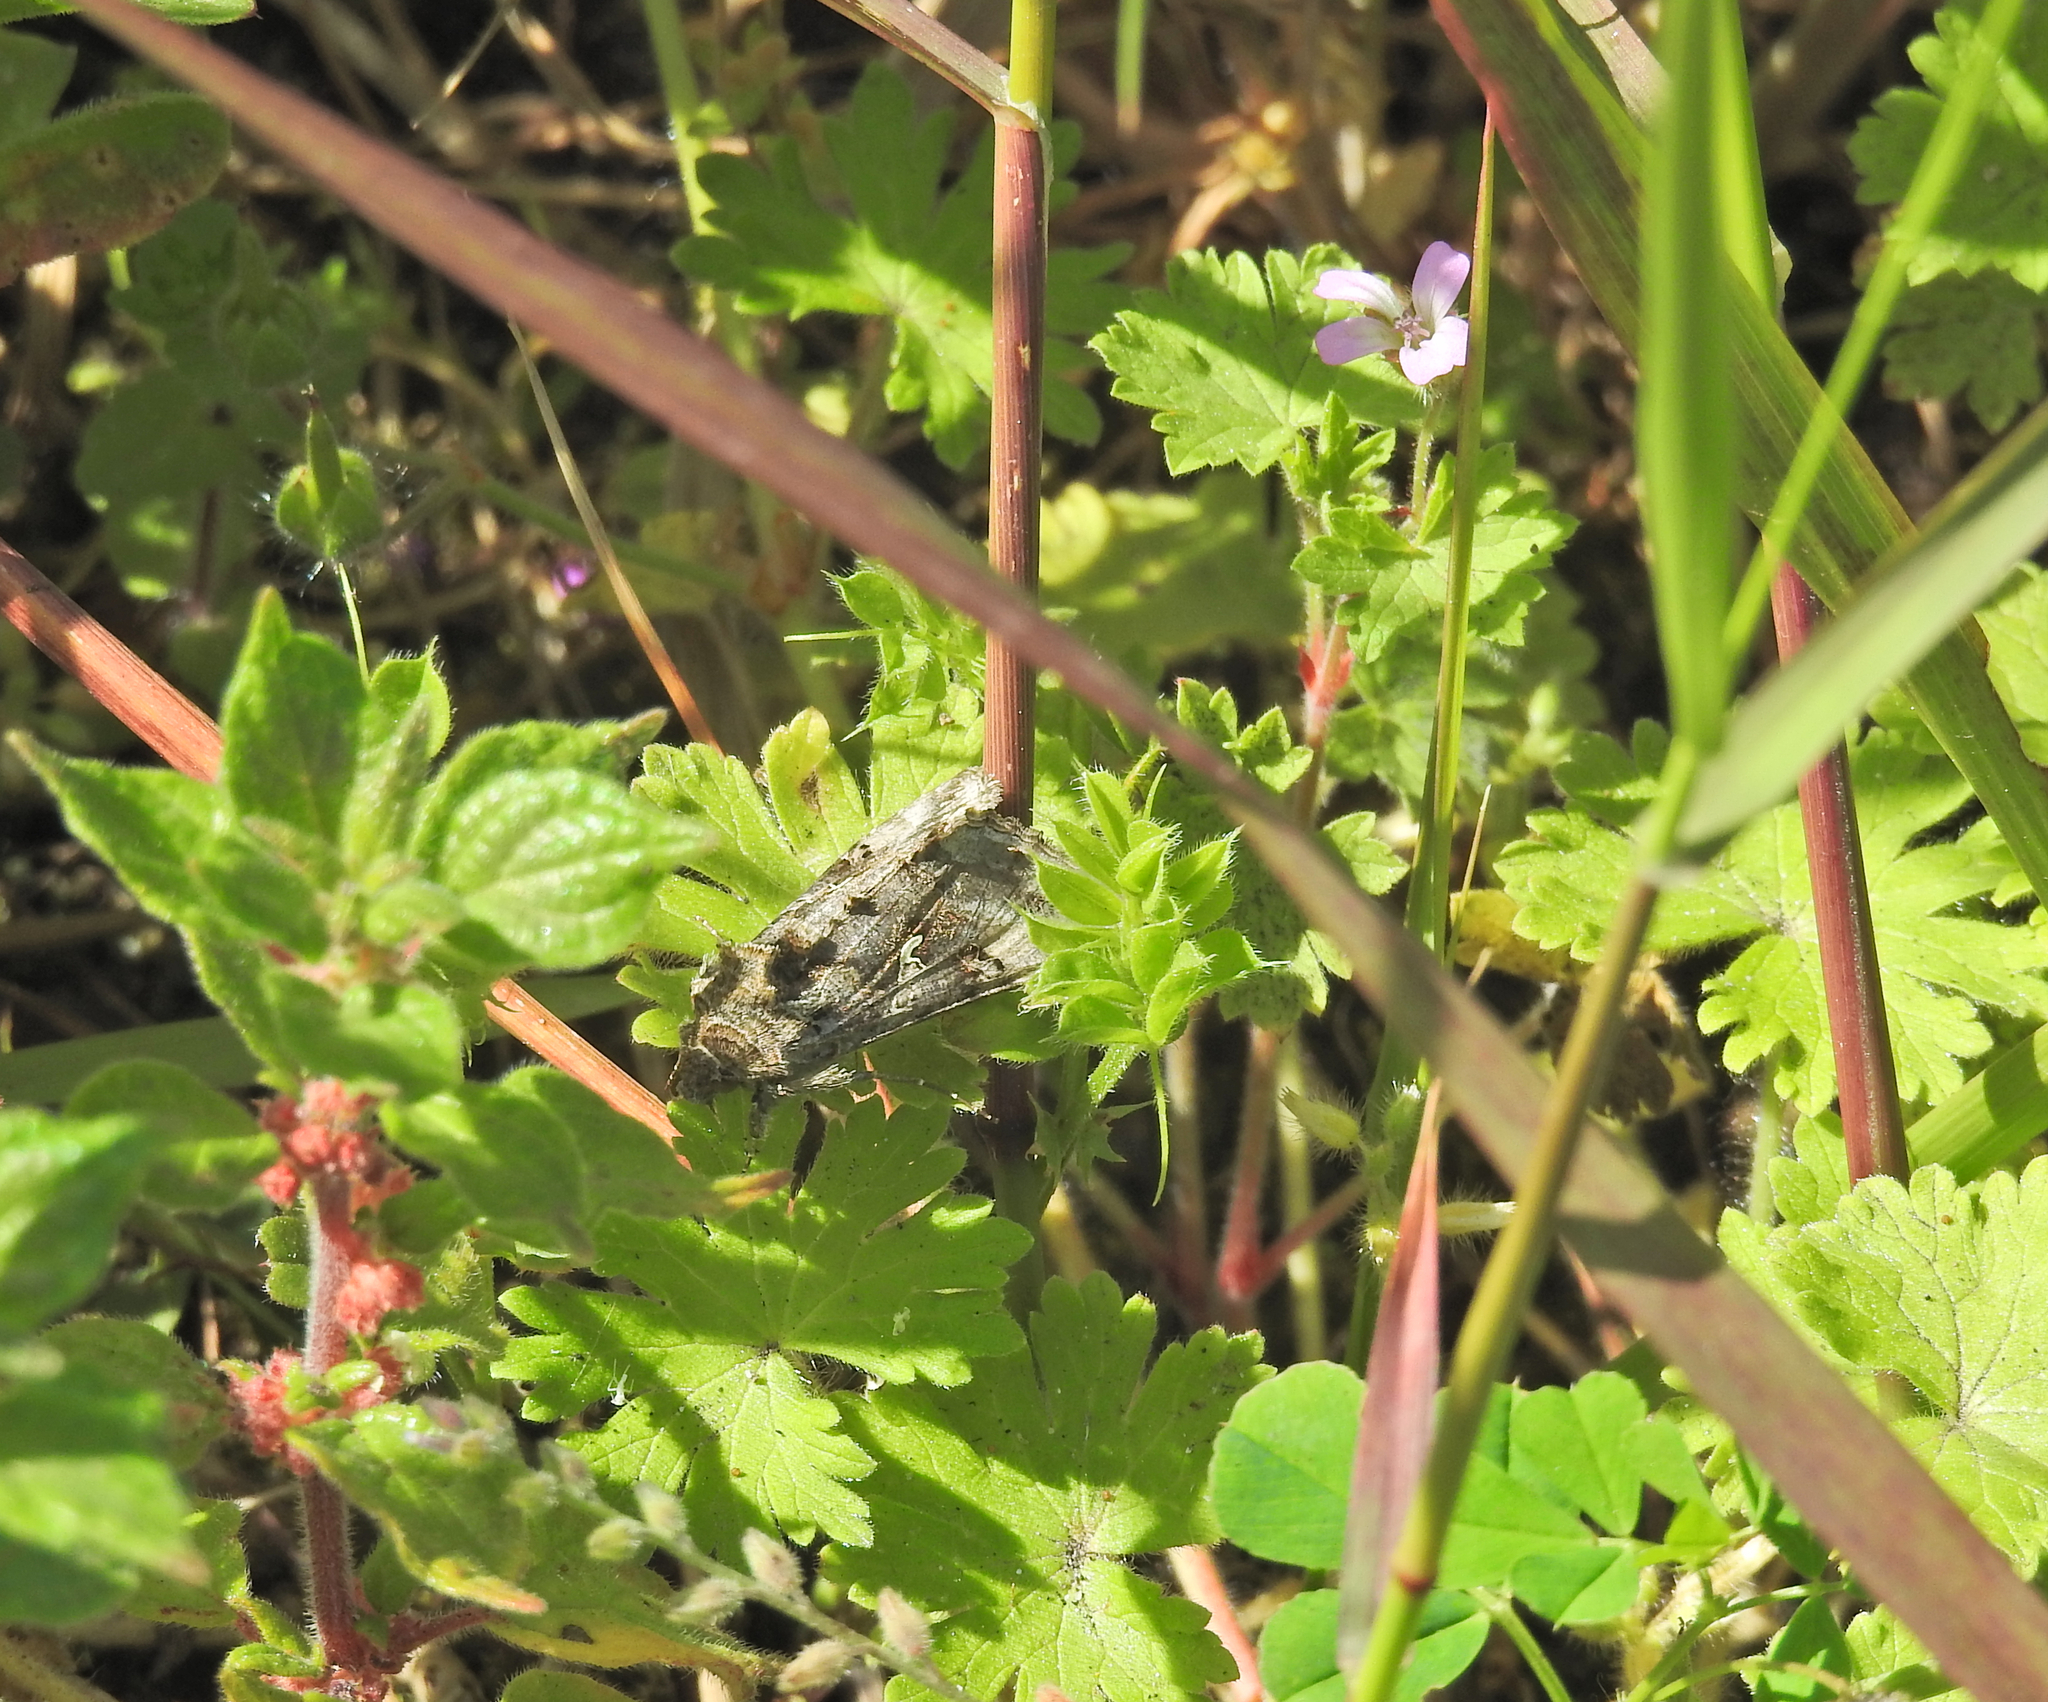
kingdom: Animalia
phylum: Arthropoda
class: Insecta
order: Lepidoptera
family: Noctuidae
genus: Autographa
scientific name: Autographa gamma
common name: Silver y
